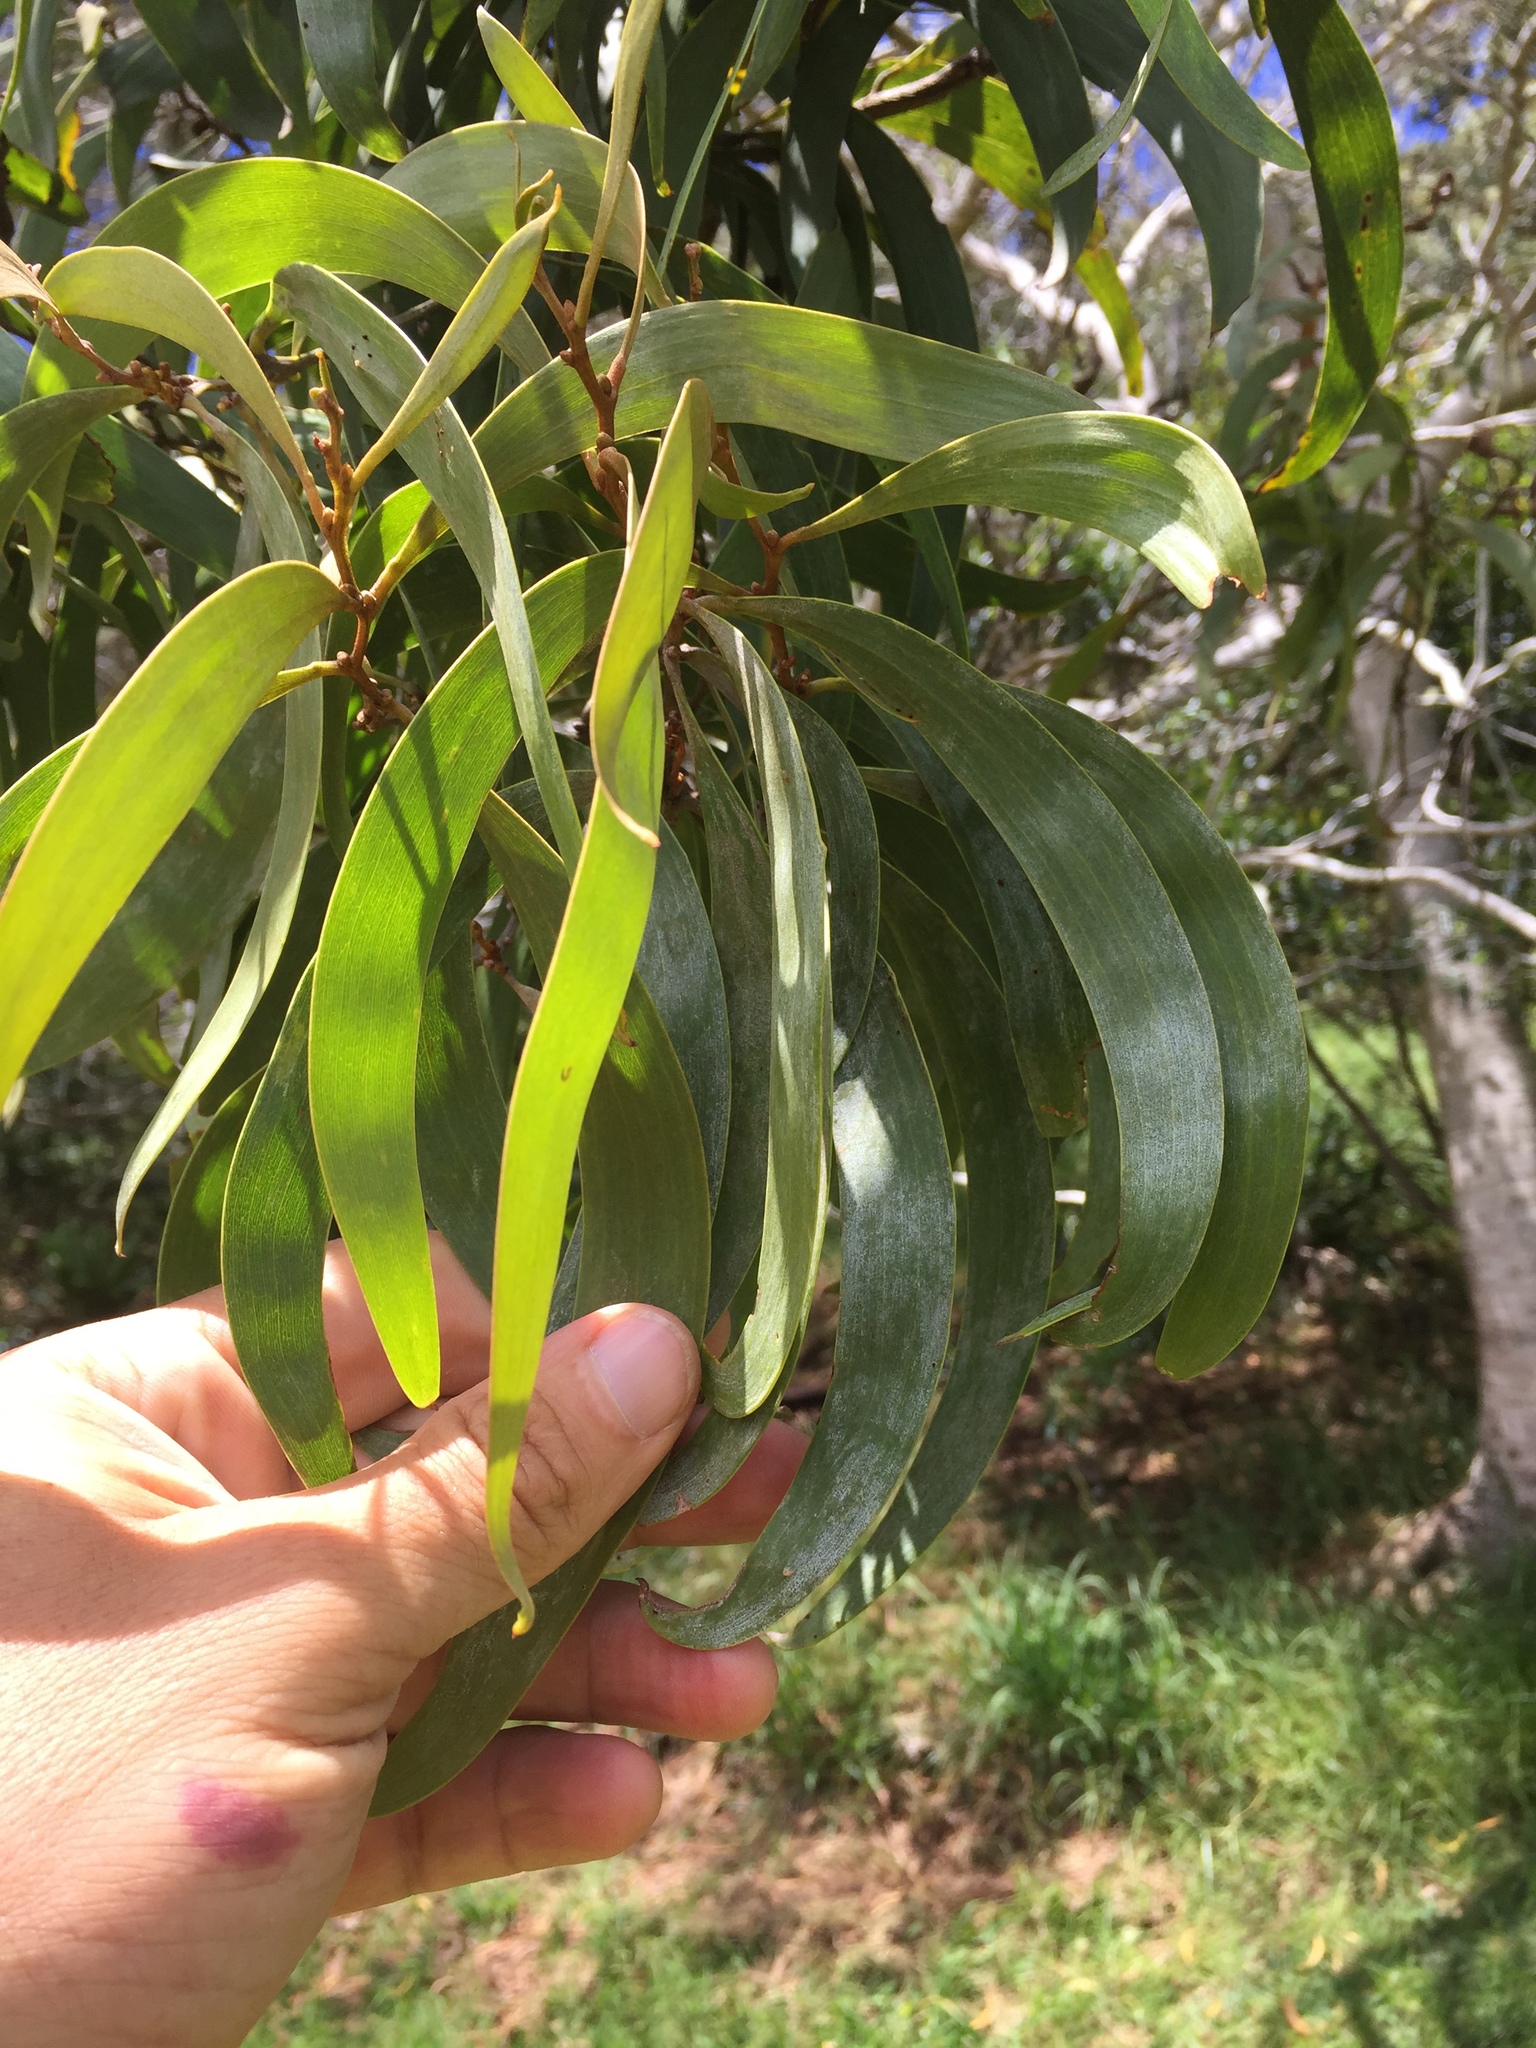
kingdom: Plantae
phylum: Tracheophyta
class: Magnoliopsida
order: Fabales
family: Fabaceae
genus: Acacia
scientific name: Acacia koa
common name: Gray koa
